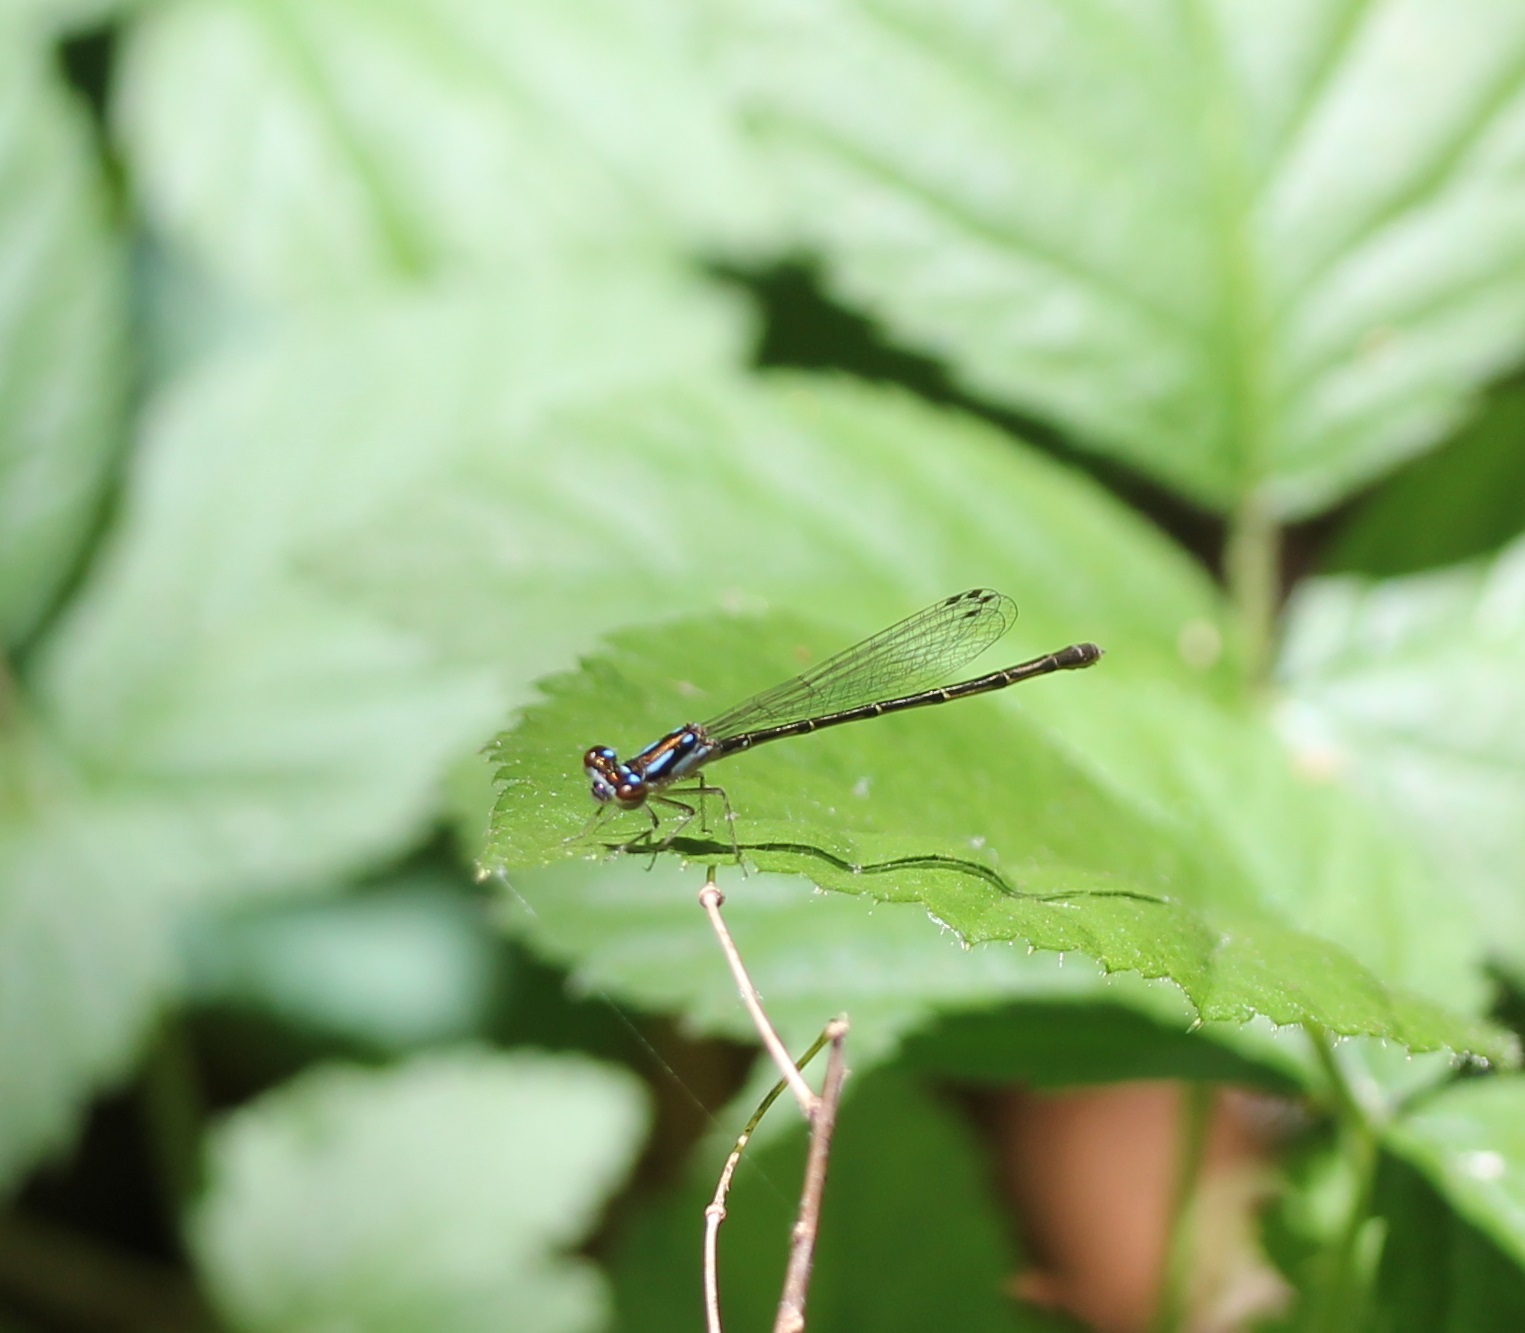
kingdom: Animalia
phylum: Arthropoda
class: Insecta
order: Odonata
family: Coenagrionidae
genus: Ischnura
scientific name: Ischnura posita
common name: Fragile forktail
